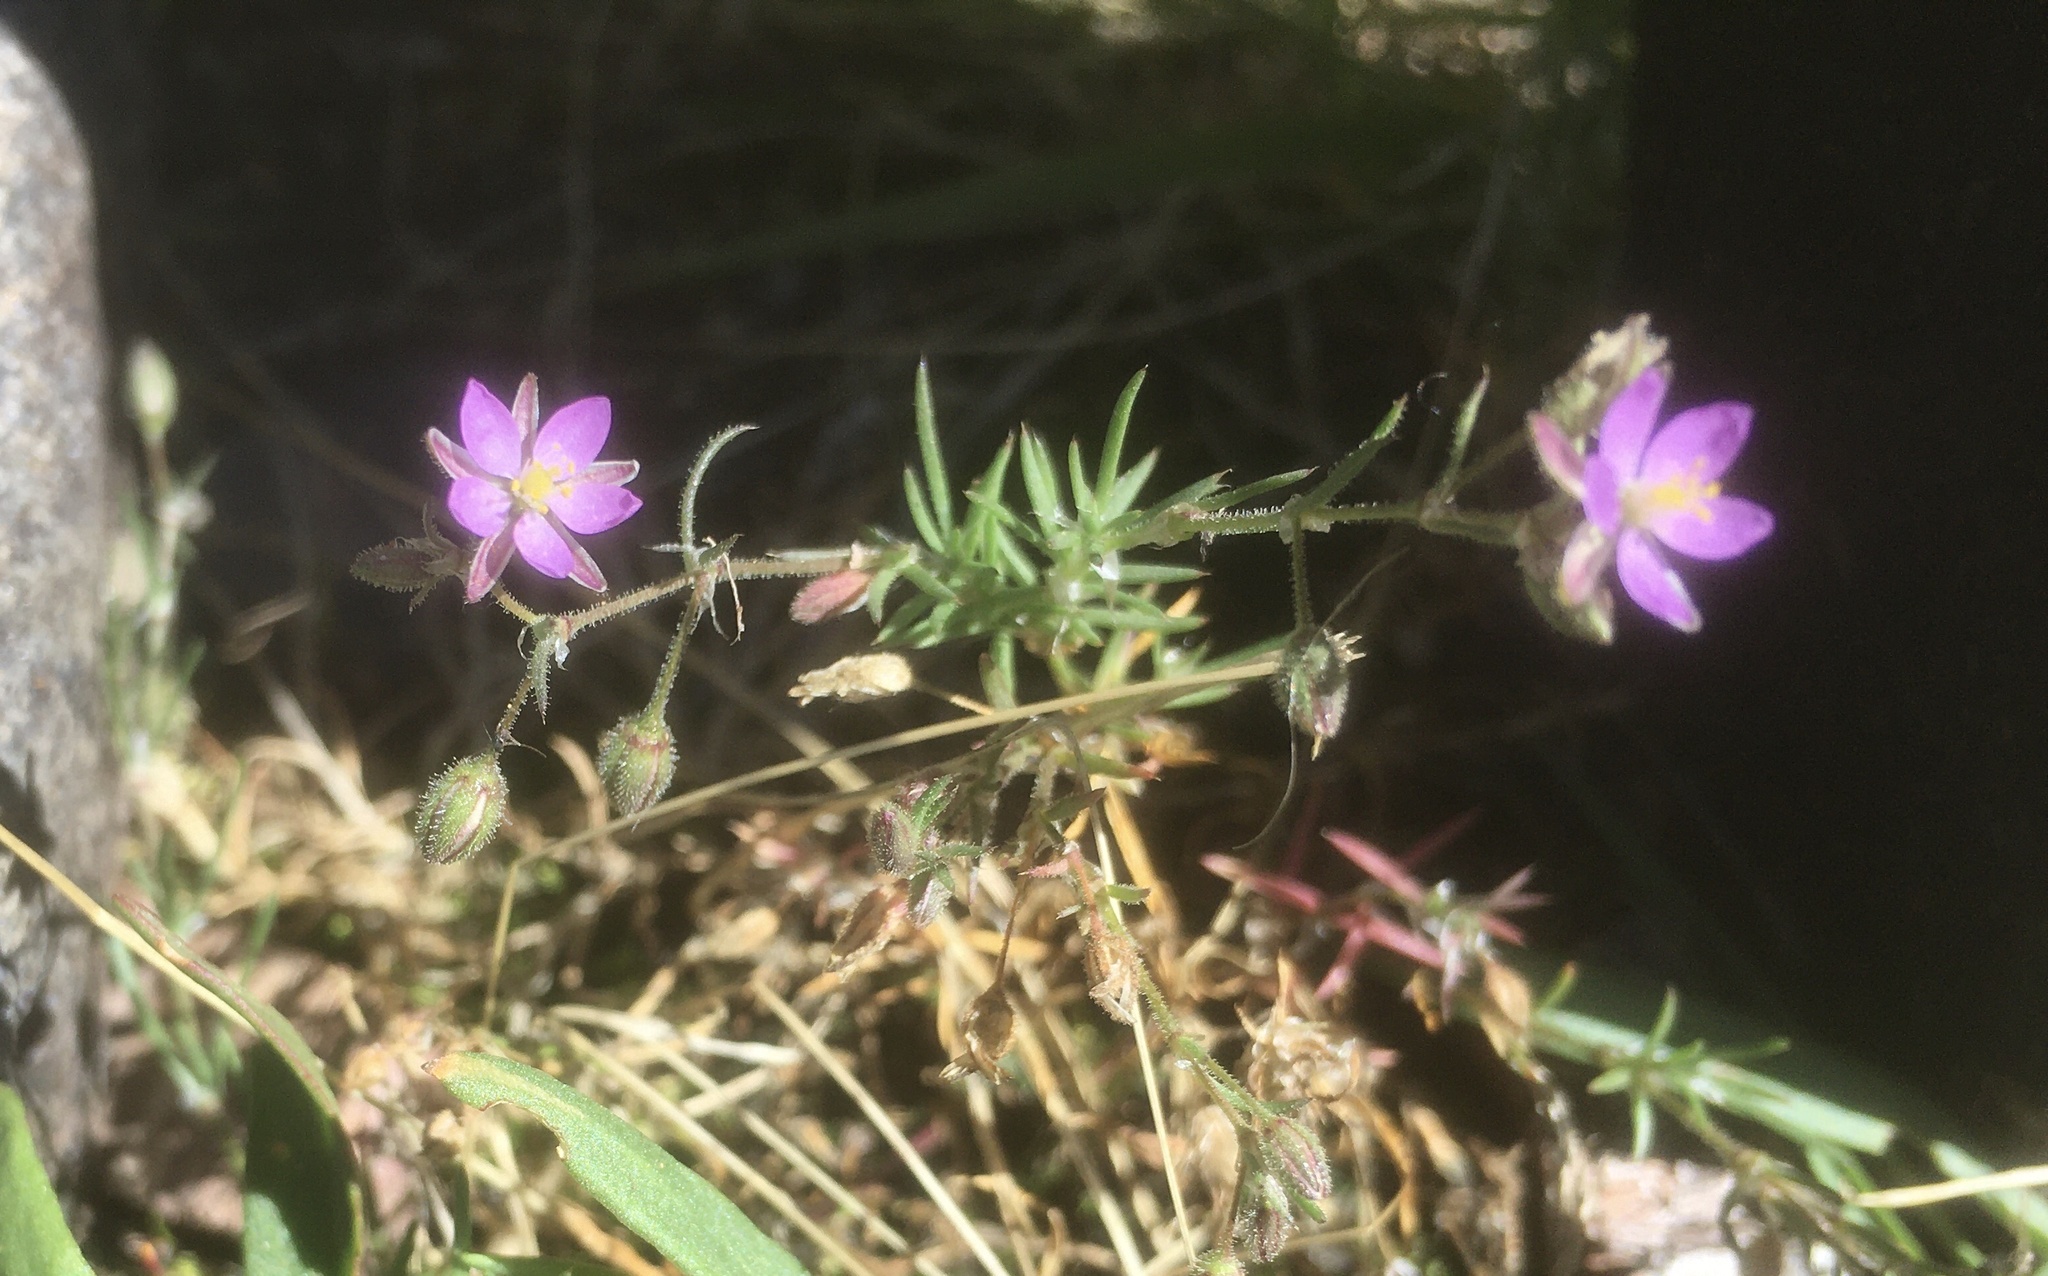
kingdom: Plantae
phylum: Tracheophyta
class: Magnoliopsida
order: Caryophyllales
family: Caryophyllaceae
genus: Spergularia
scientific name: Spergularia rubra
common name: Red sand-spurrey
